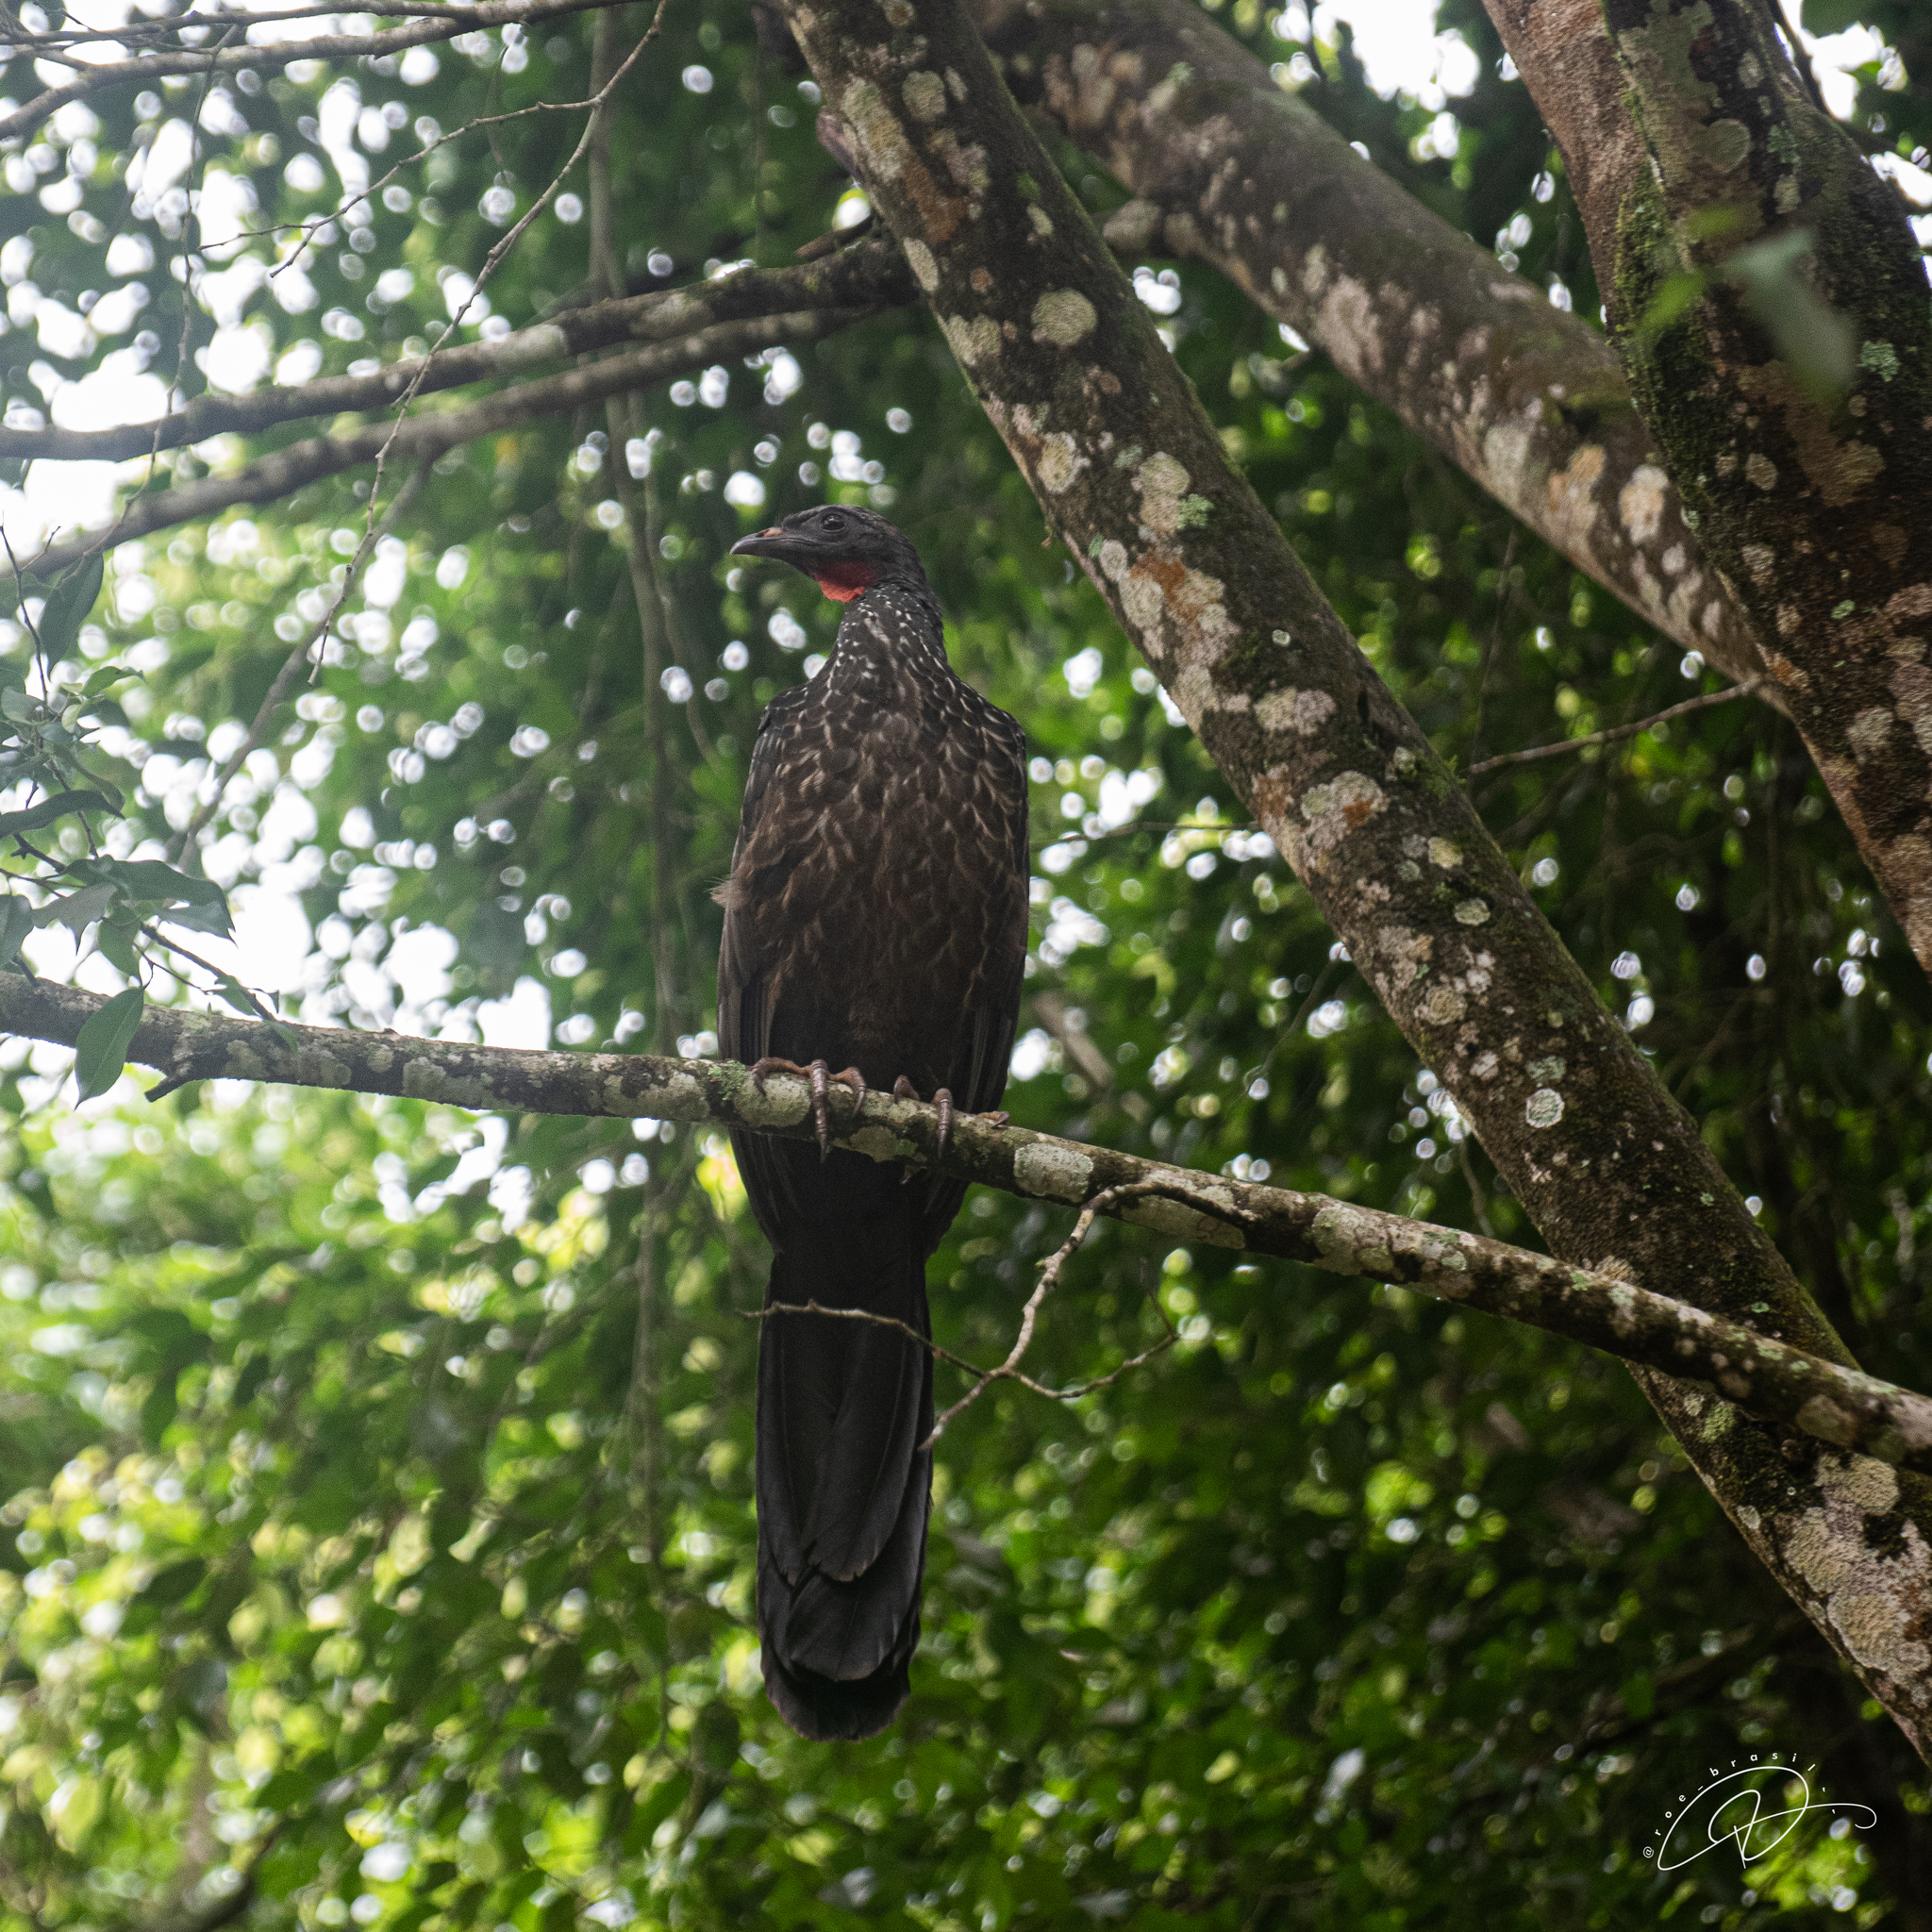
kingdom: Animalia
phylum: Chordata
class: Aves
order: Galliformes
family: Cracidae
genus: Penelope
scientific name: Penelope obscura
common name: Dusky-legged guan
